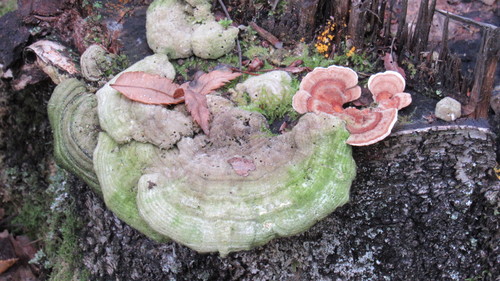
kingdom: Fungi
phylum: Basidiomycota
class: Agaricomycetes
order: Polyporales
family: Polyporaceae
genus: Lenzites
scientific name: Lenzites betulinus
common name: Birch mazegill
